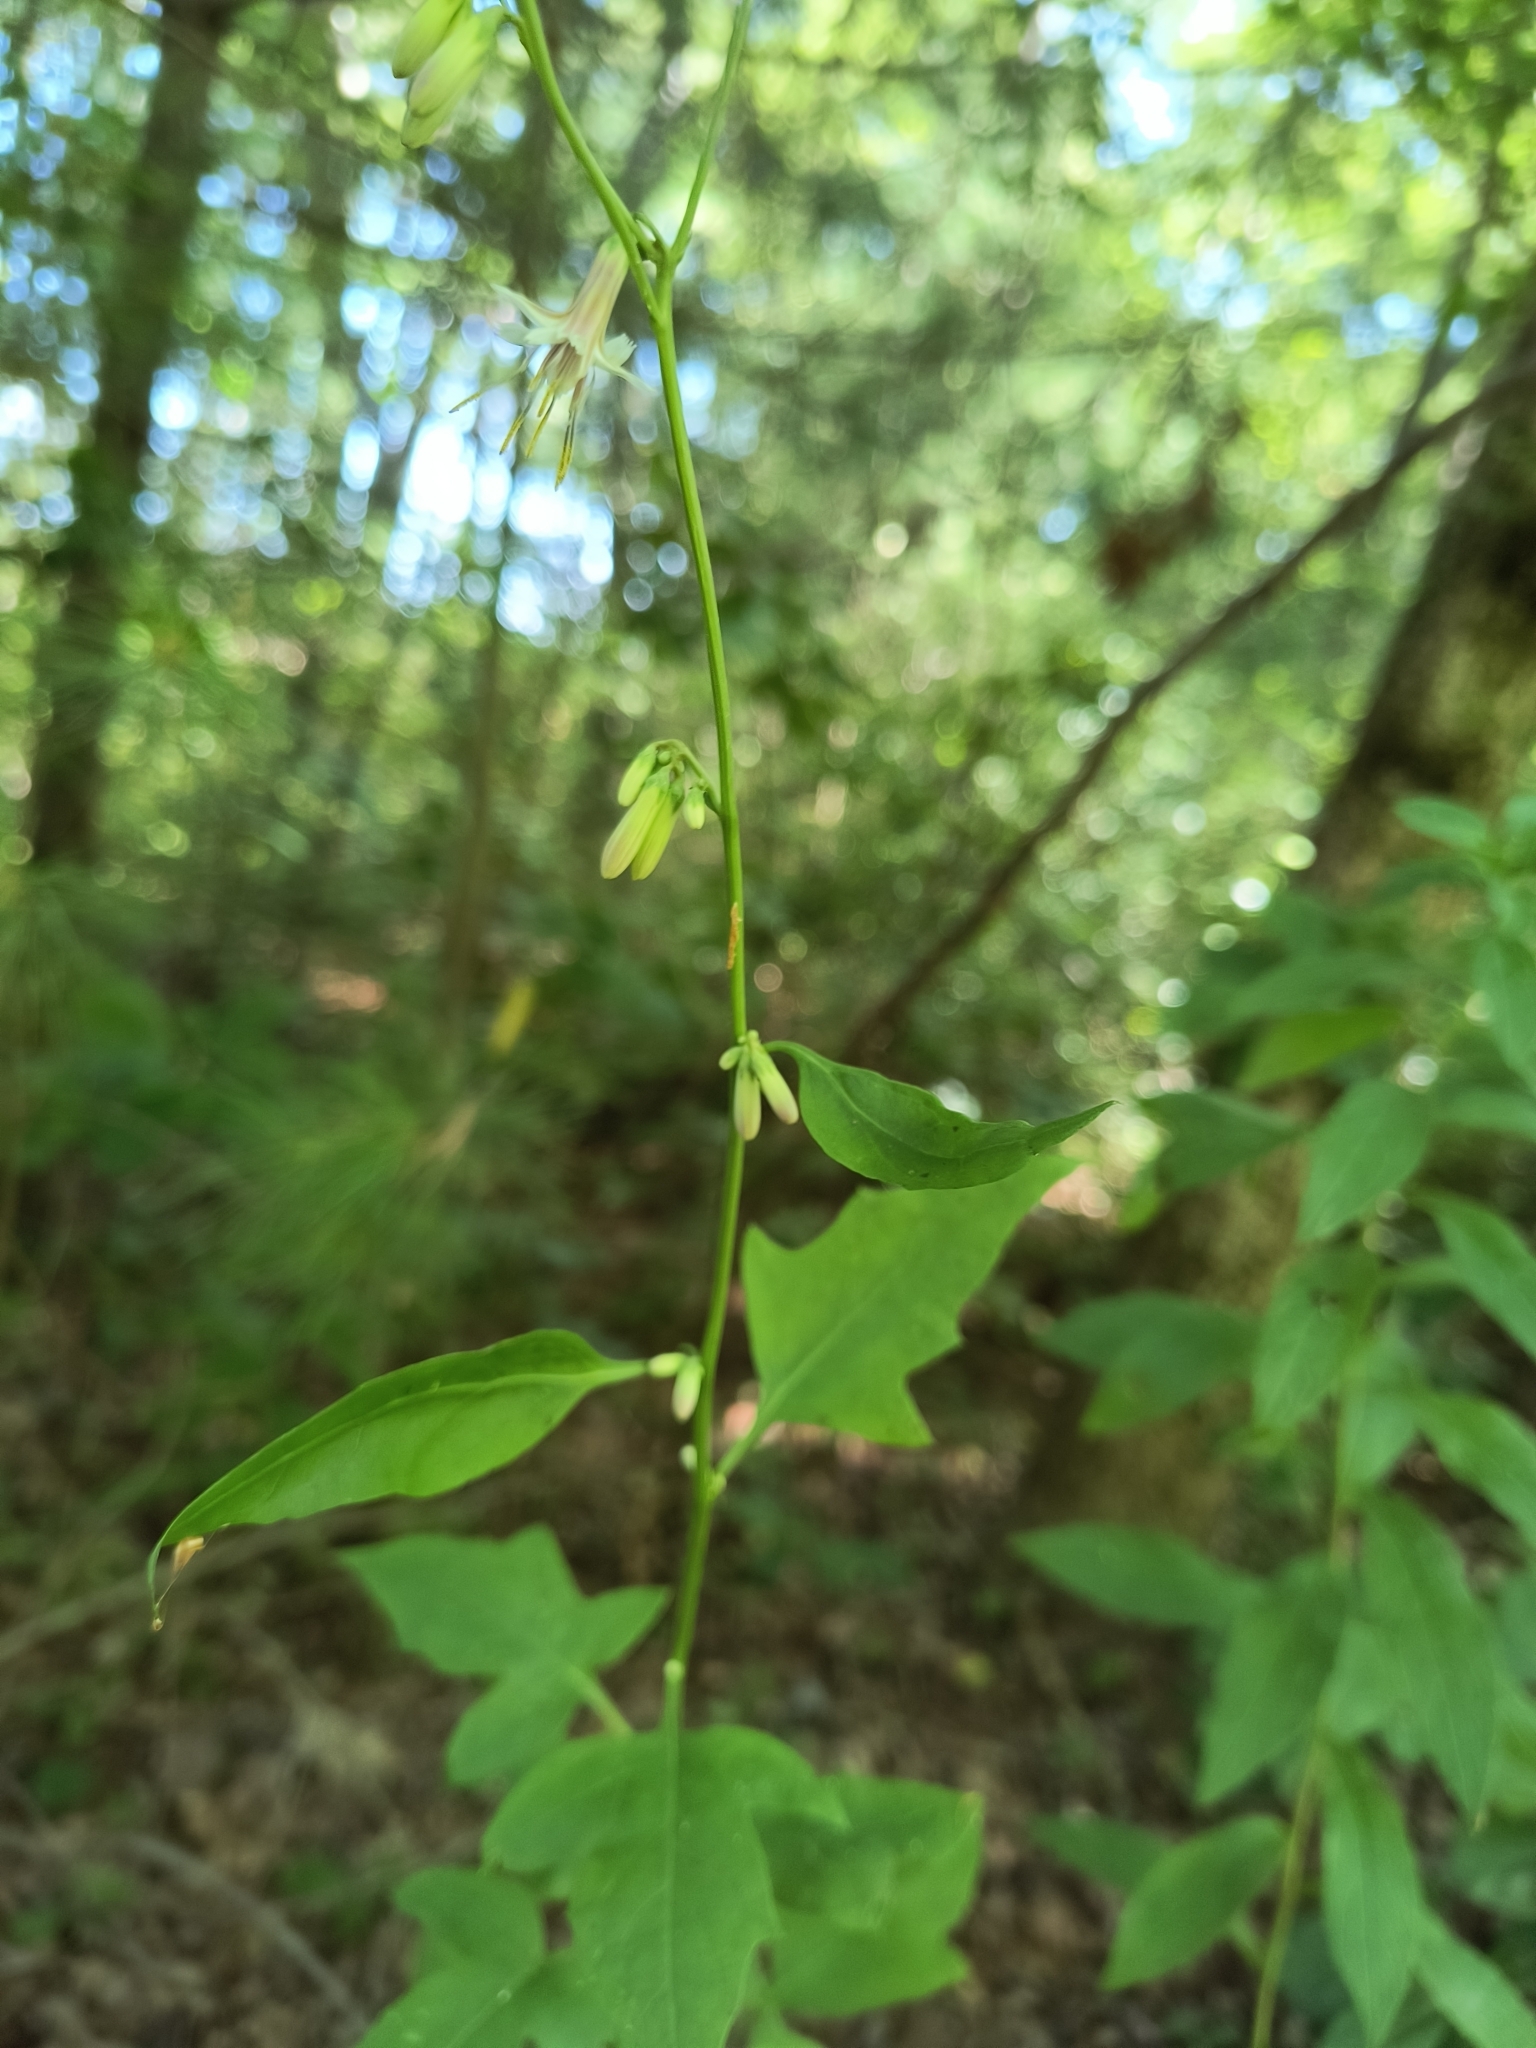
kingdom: Plantae
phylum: Tracheophyta
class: Magnoliopsida
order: Asterales
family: Asteraceae
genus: Nabalus
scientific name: Nabalus trifoliolatus
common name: Gall-of-the-earth
